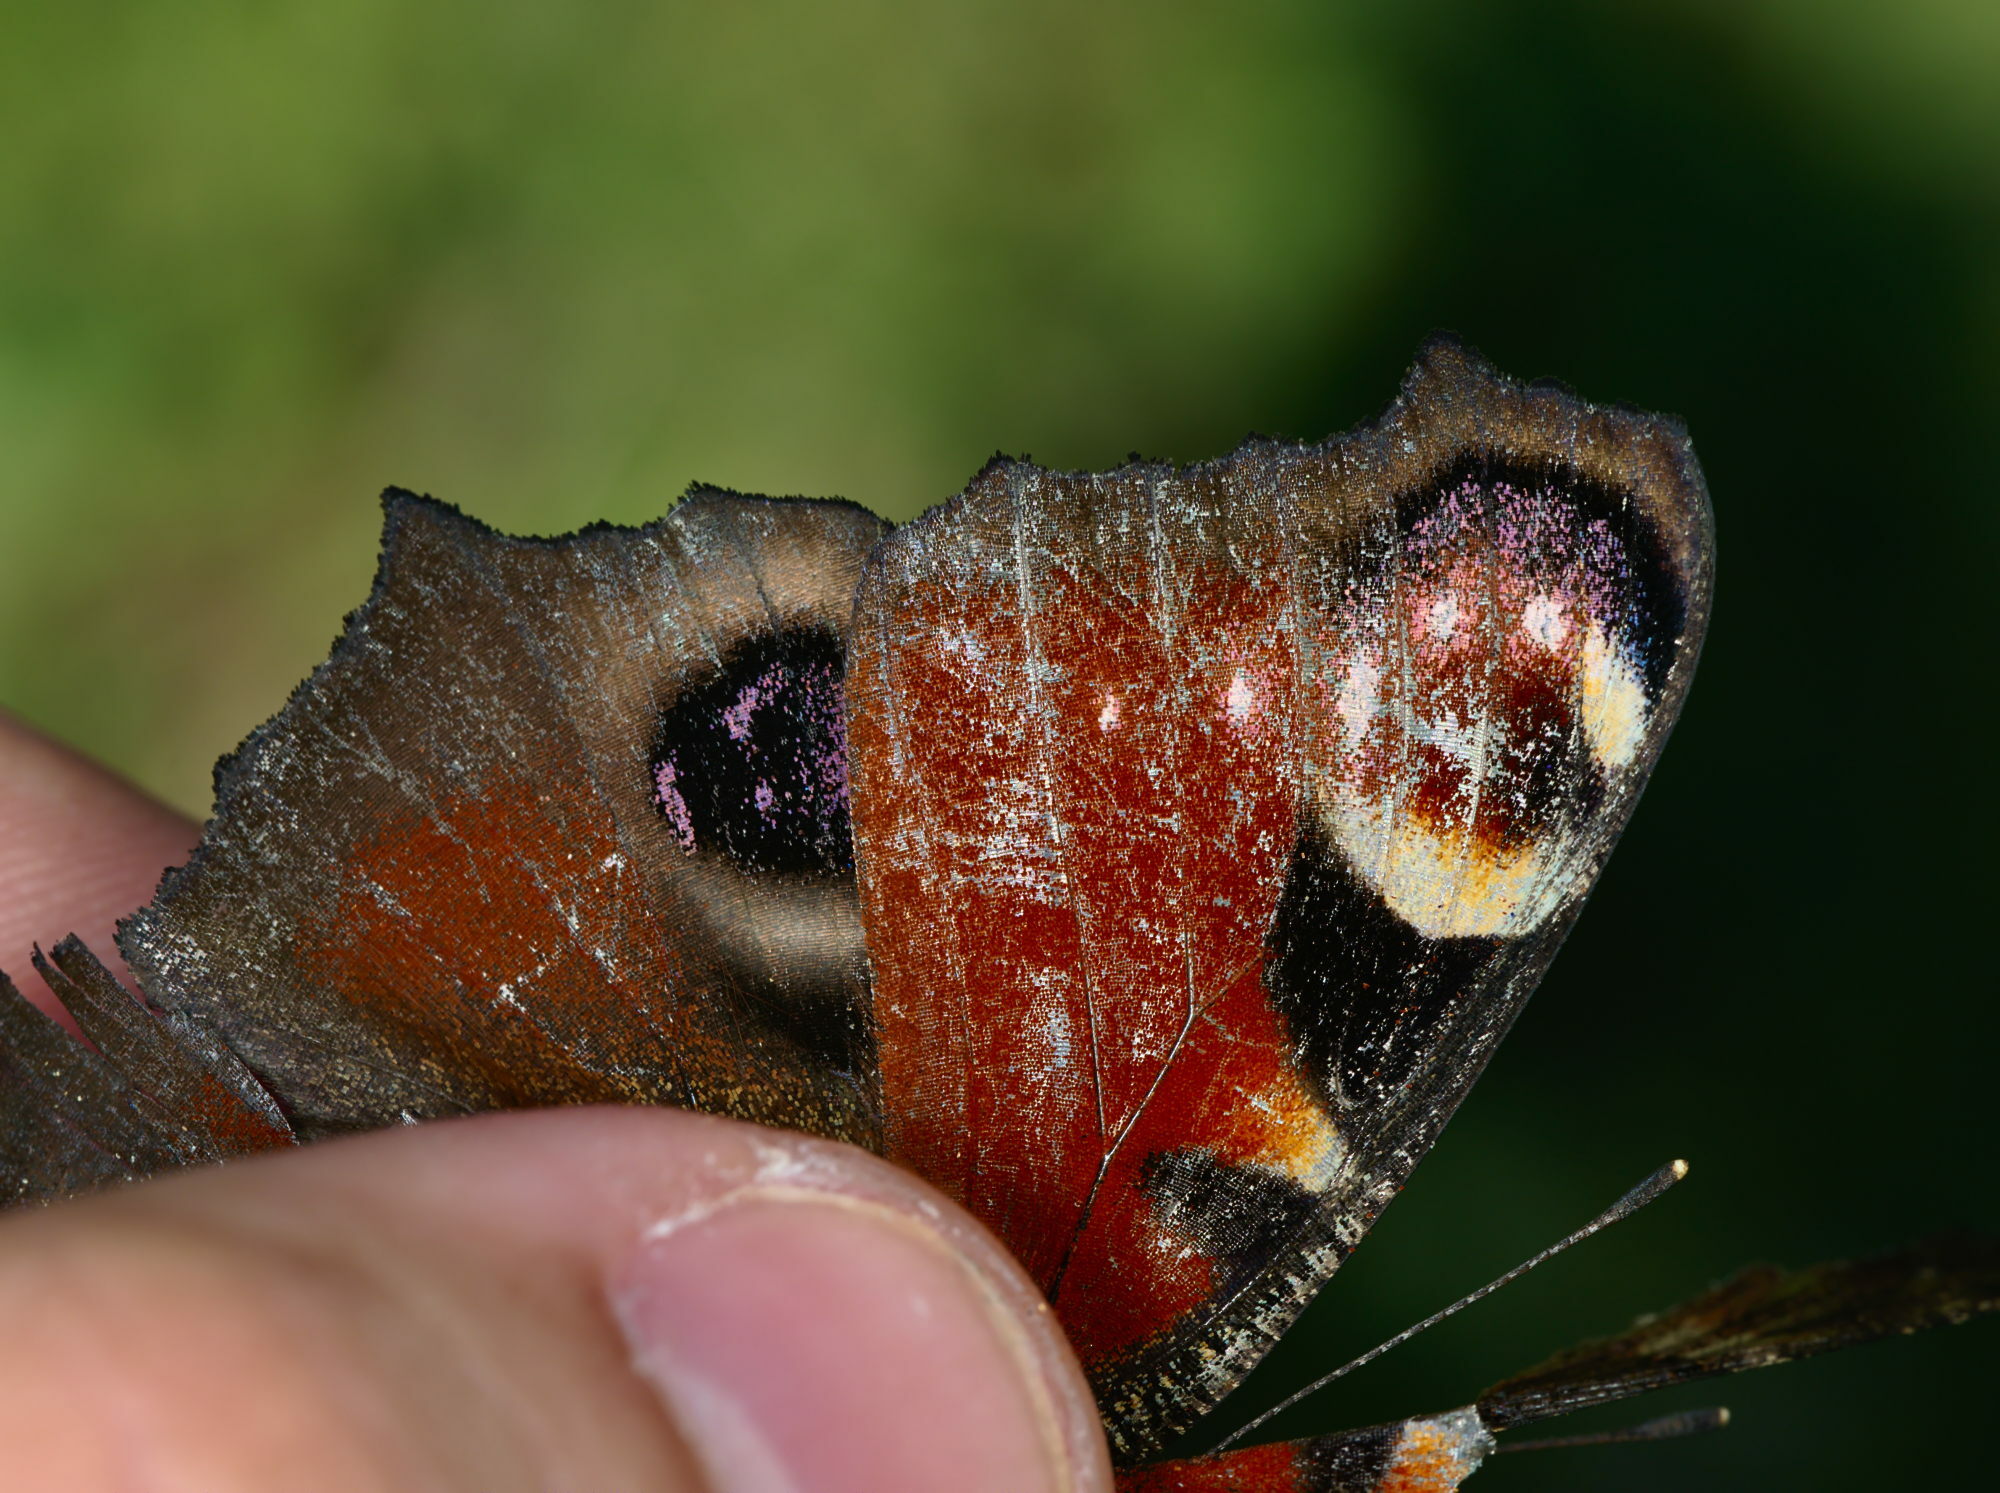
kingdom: Animalia
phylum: Arthropoda
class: Insecta
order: Lepidoptera
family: Nymphalidae
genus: Aglais
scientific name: Aglais io
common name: Peacock
